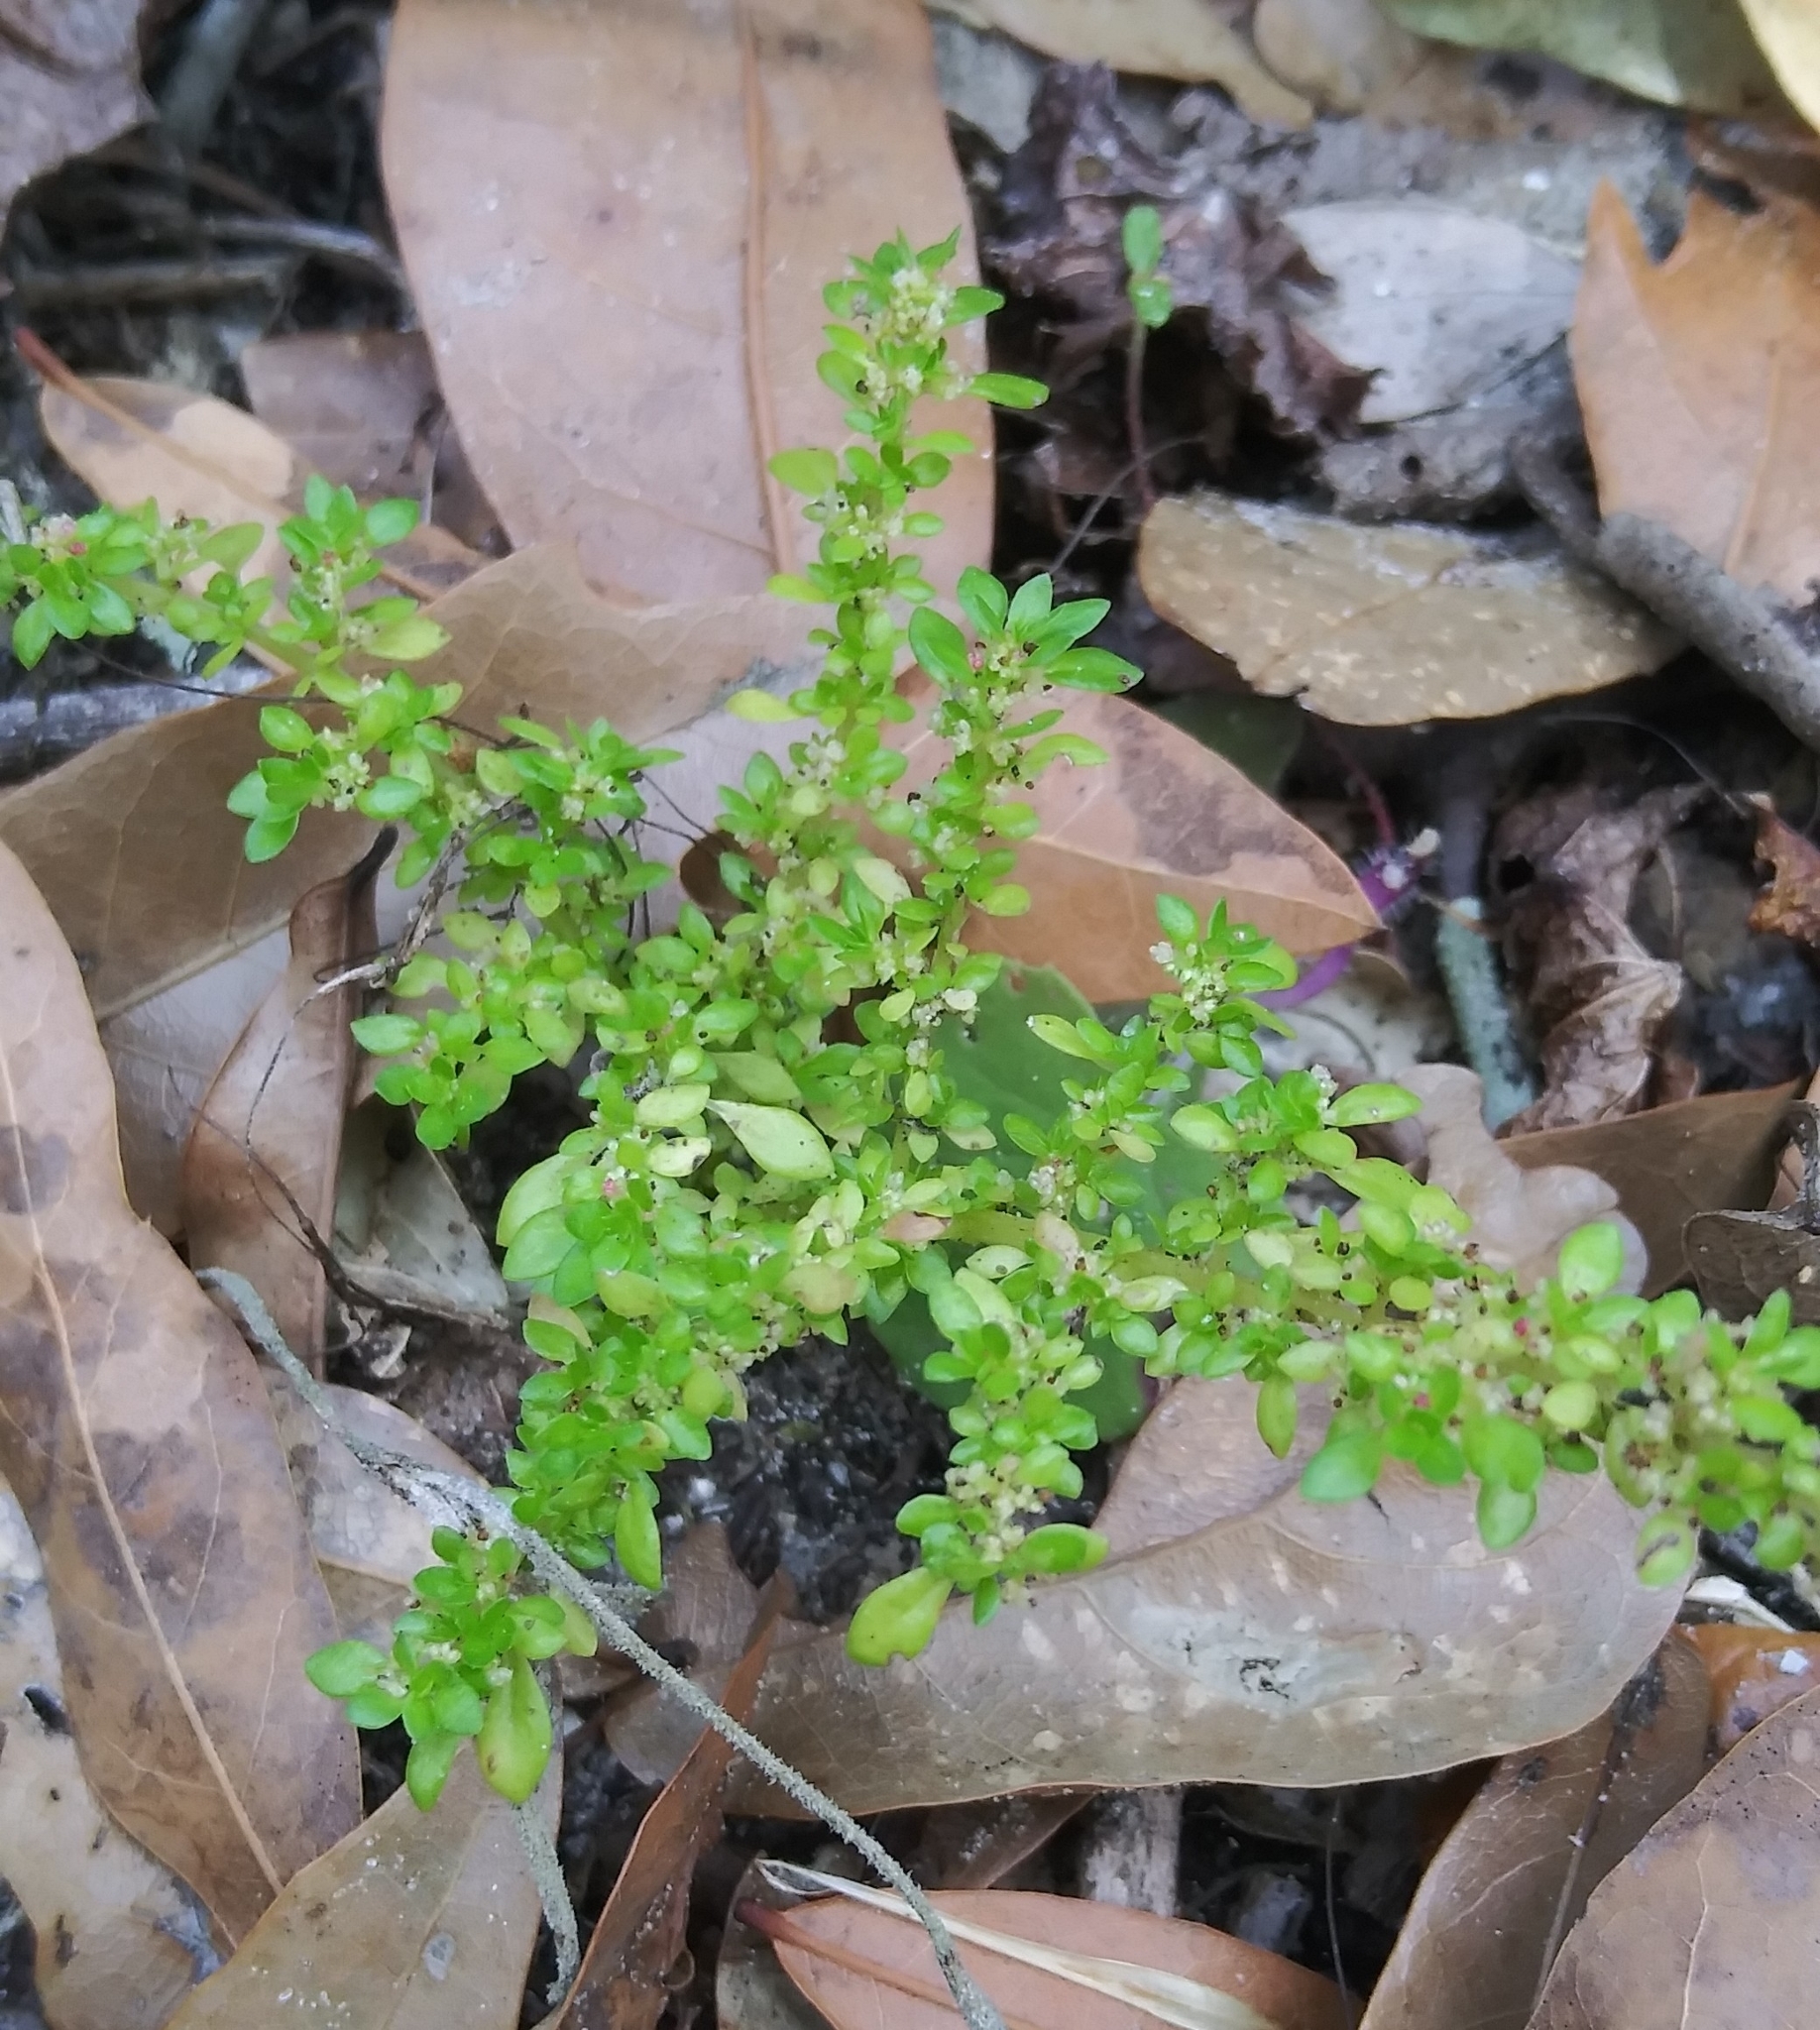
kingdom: Plantae
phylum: Tracheophyta
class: Magnoliopsida
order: Rosales
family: Urticaceae
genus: Pilea
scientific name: Pilea microphylla
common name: Artillery-plant
